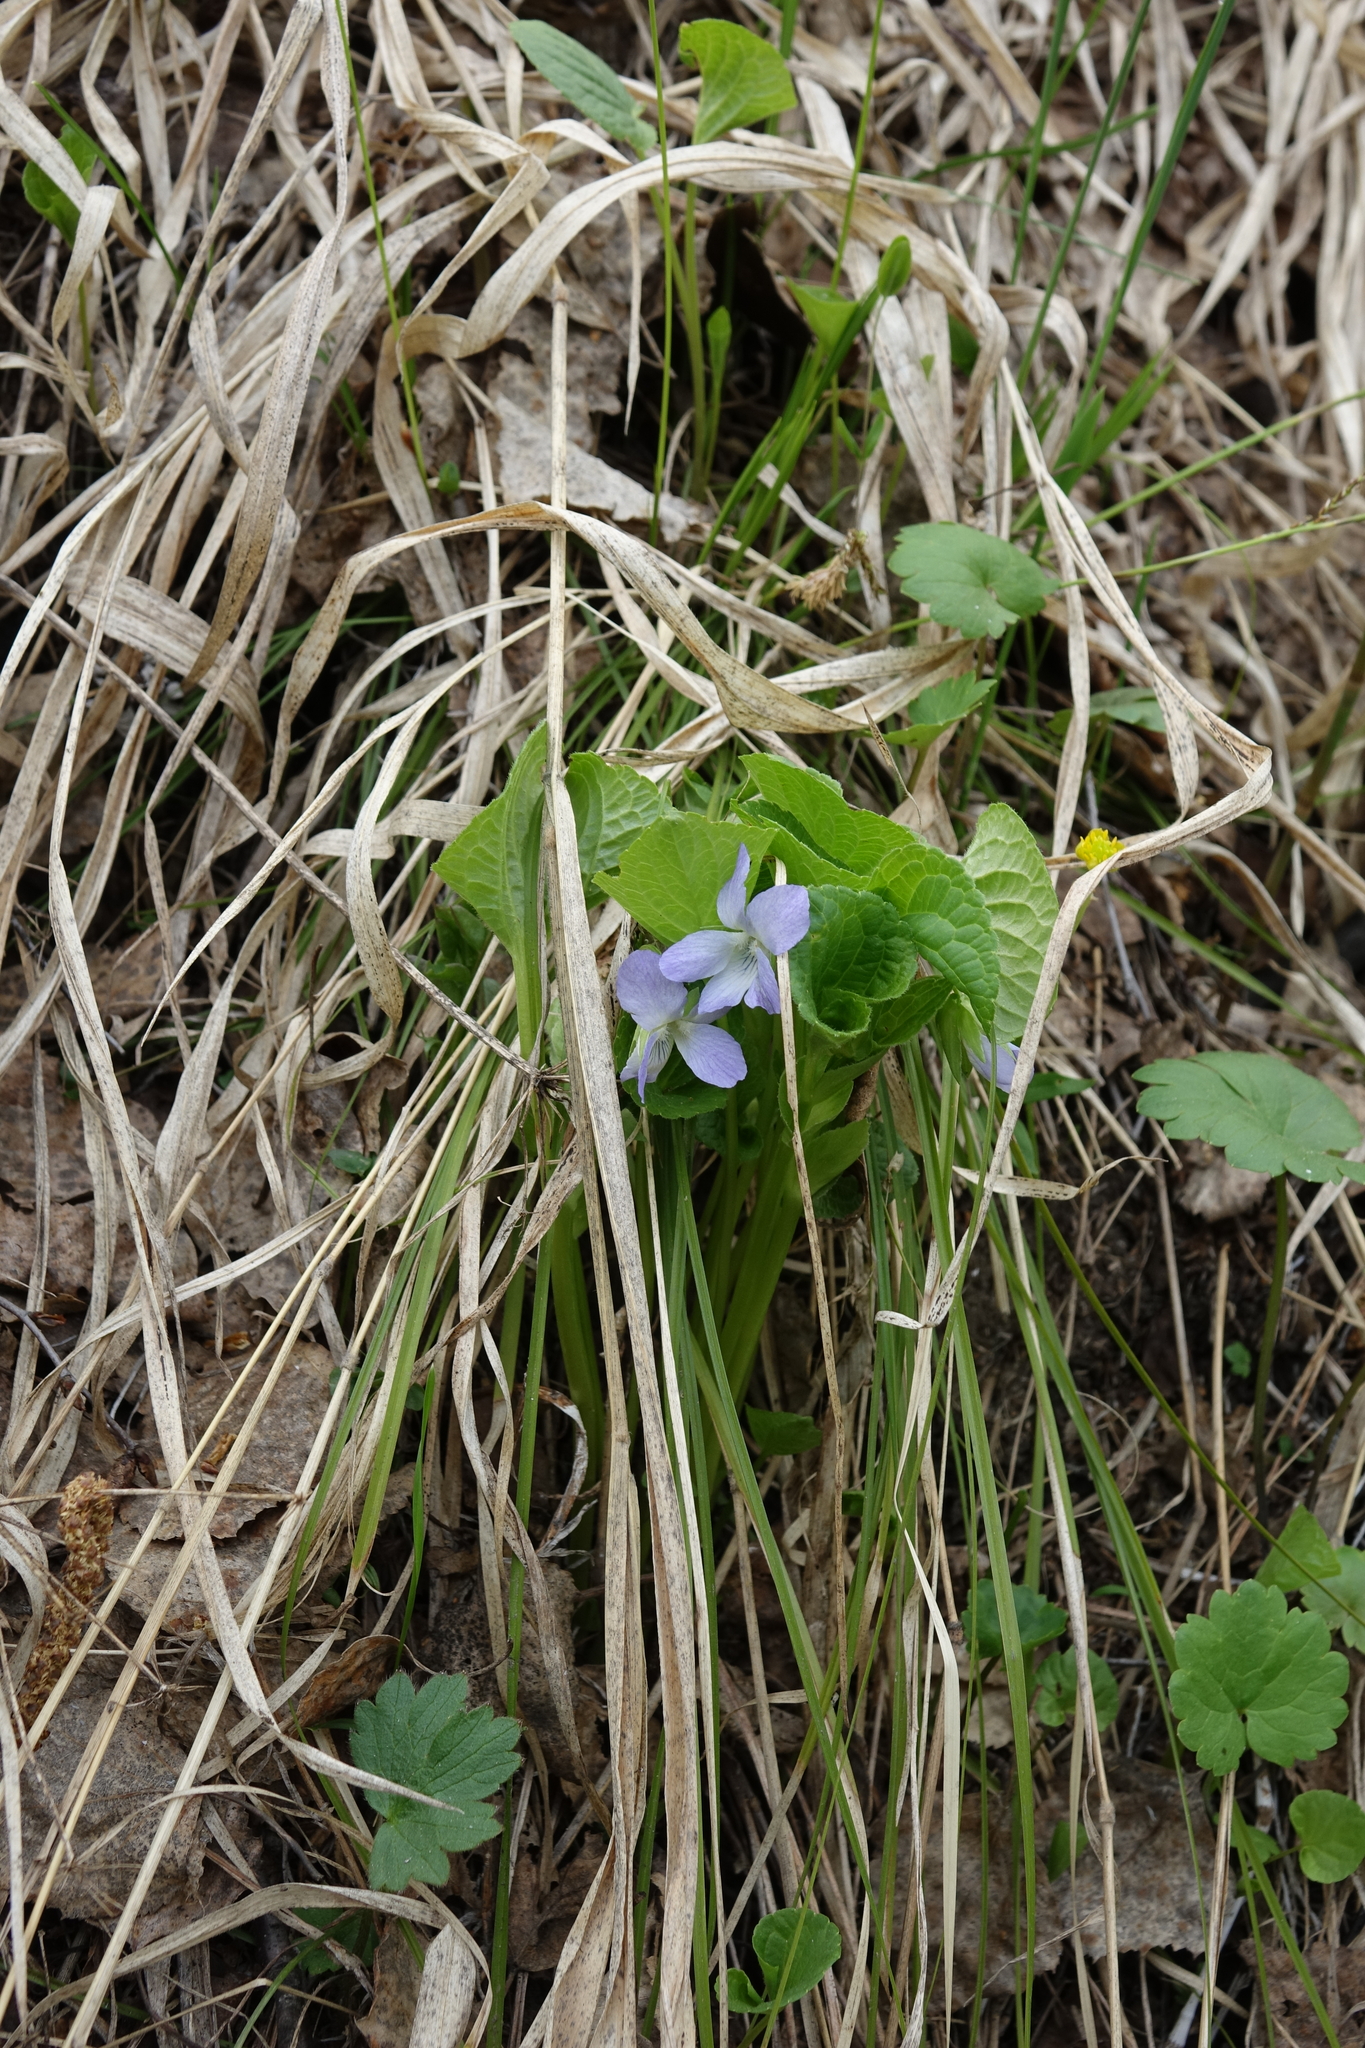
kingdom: Plantae
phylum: Tracheophyta
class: Magnoliopsida
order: Malpighiales
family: Violaceae
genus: Viola
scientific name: Viola mirabilis
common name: Wonder violet
